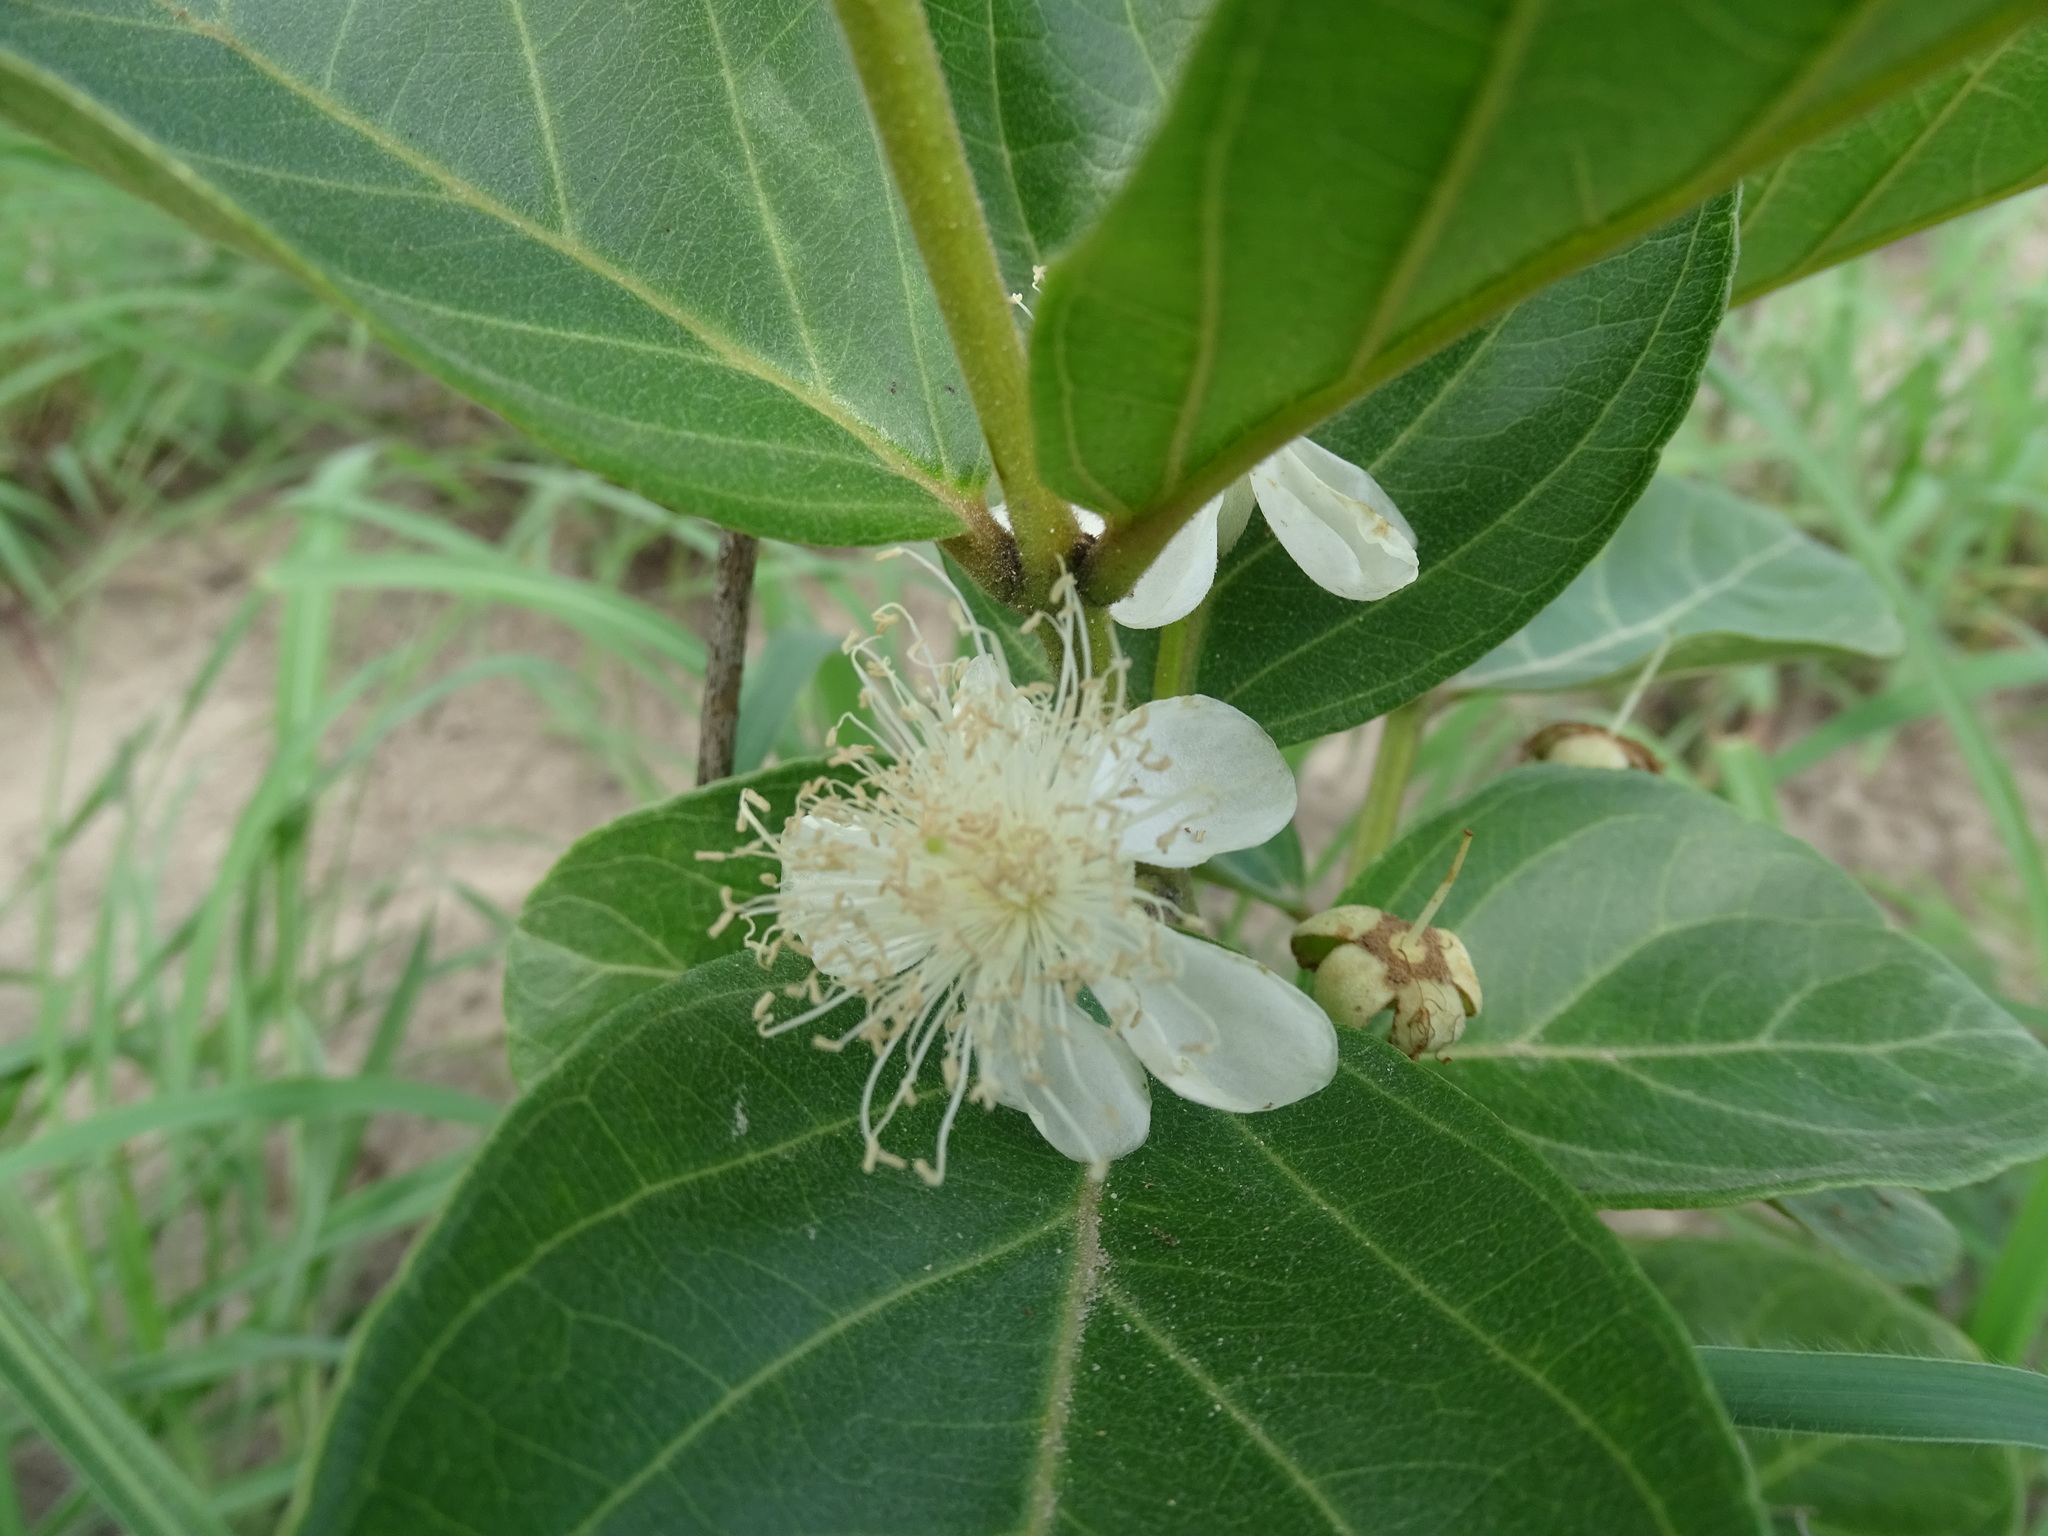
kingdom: Plantae
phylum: Tracheophyta
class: Magnoliopsida
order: Myrtales
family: Myrtaceae
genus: Psidium
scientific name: Psidium guineense
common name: Brazilian guava
